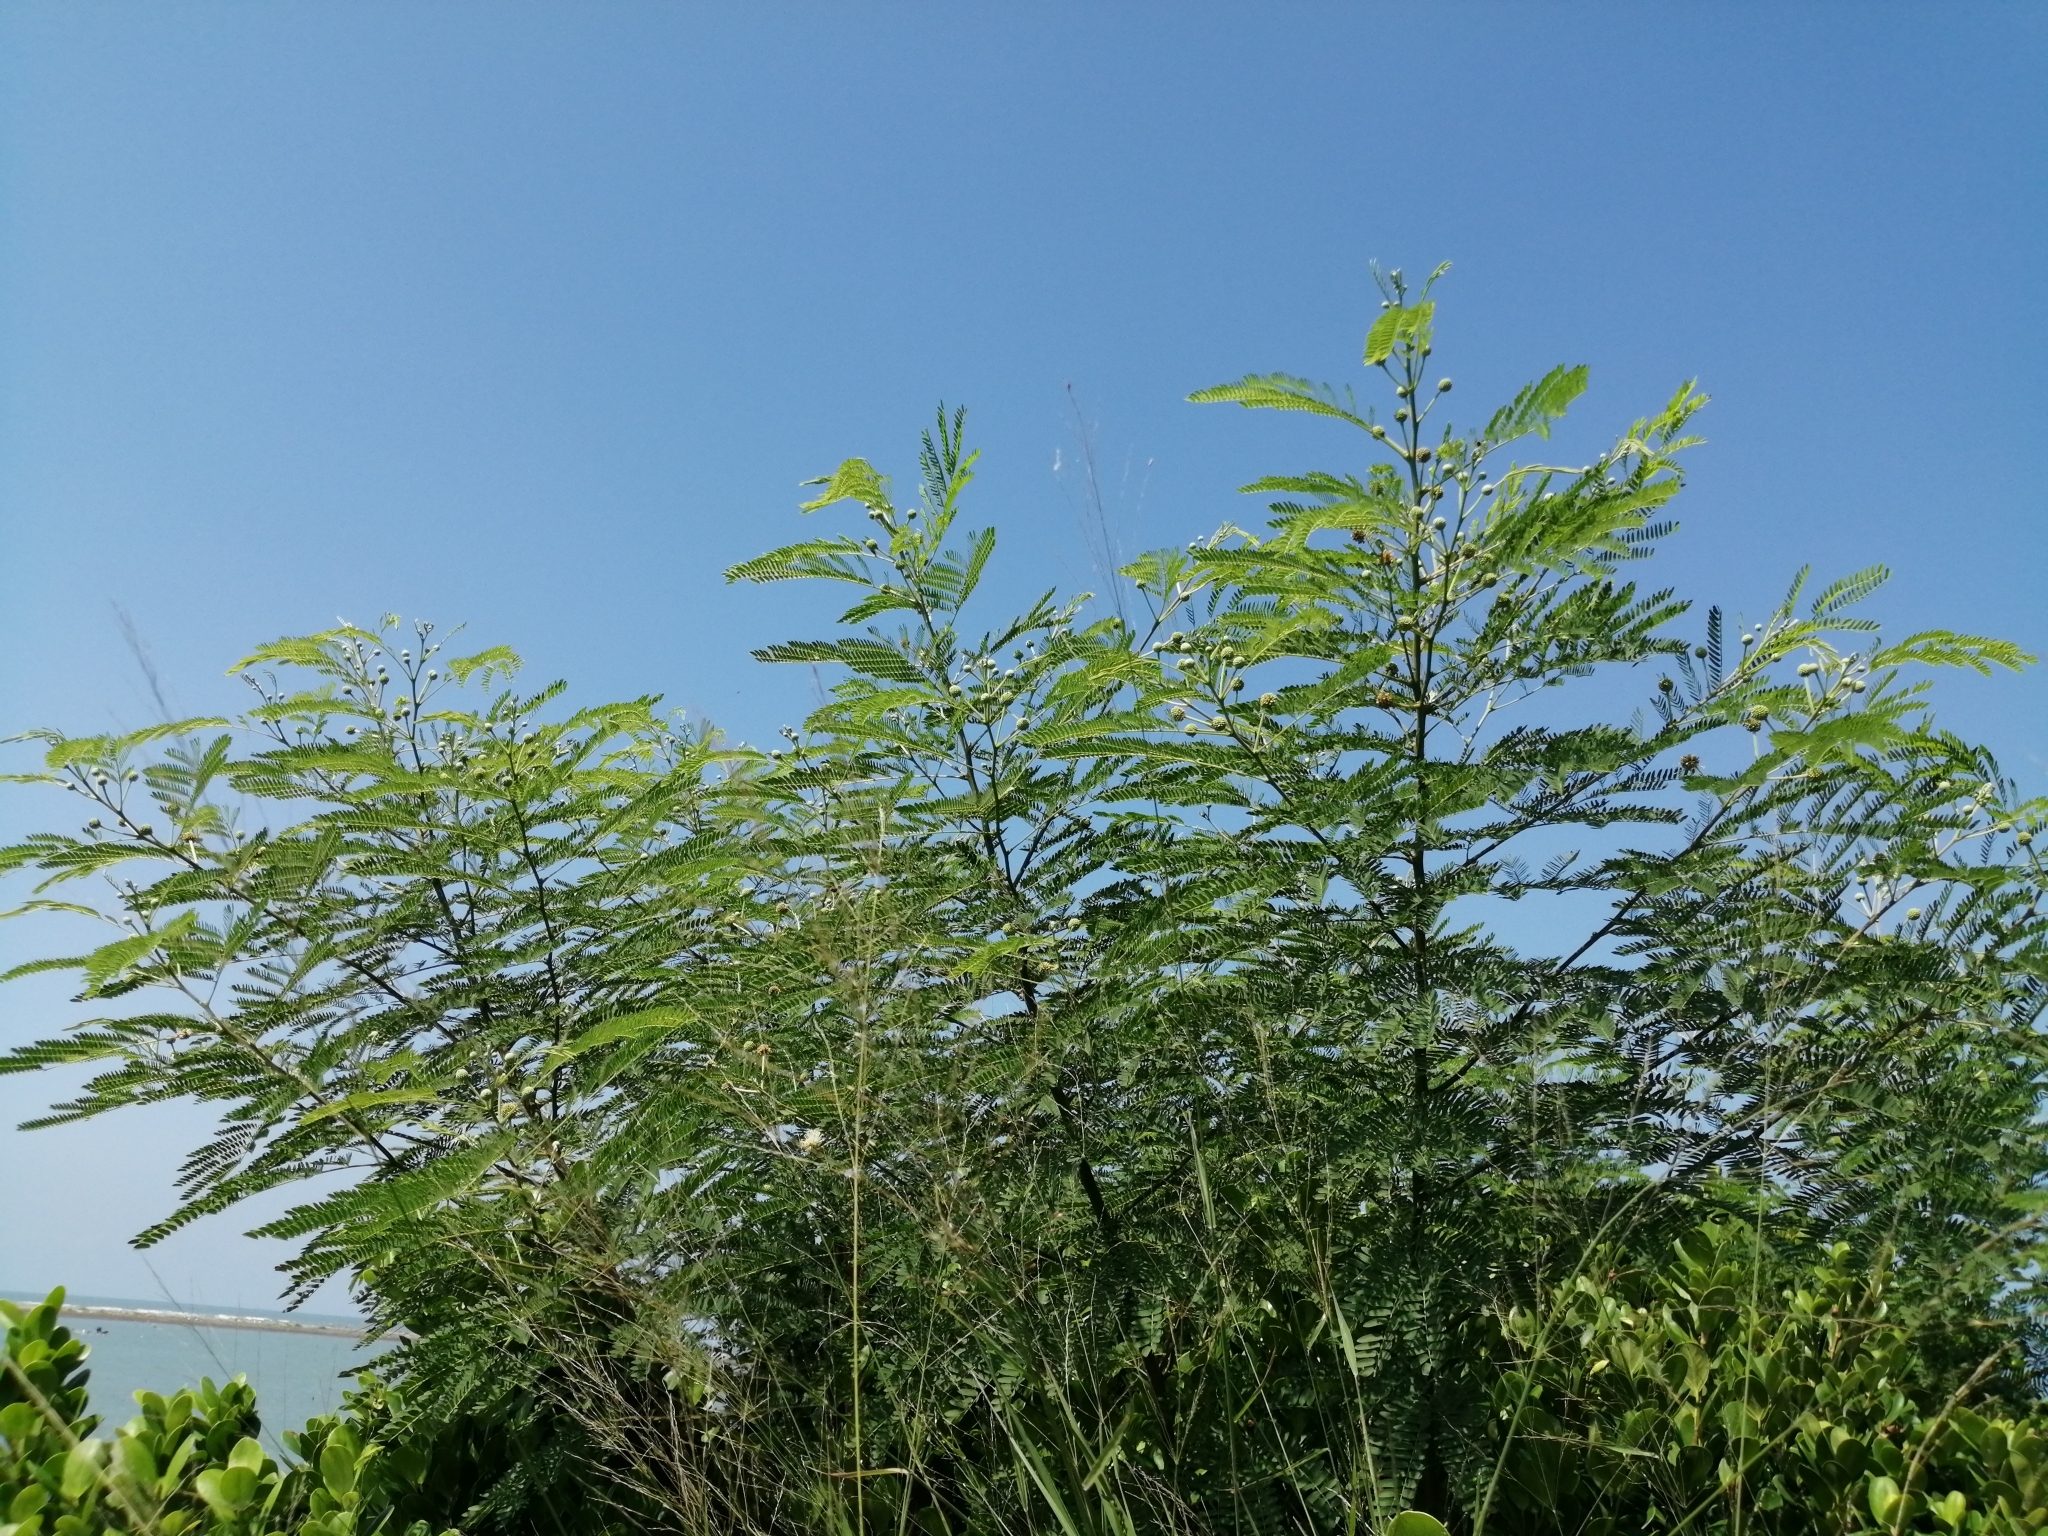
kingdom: Plantae
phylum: Tracheophyta
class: Magnoliopsida
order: Fabales
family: Fabaceae
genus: Leucaena
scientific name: Leucaena leucocephala
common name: White leadtree
